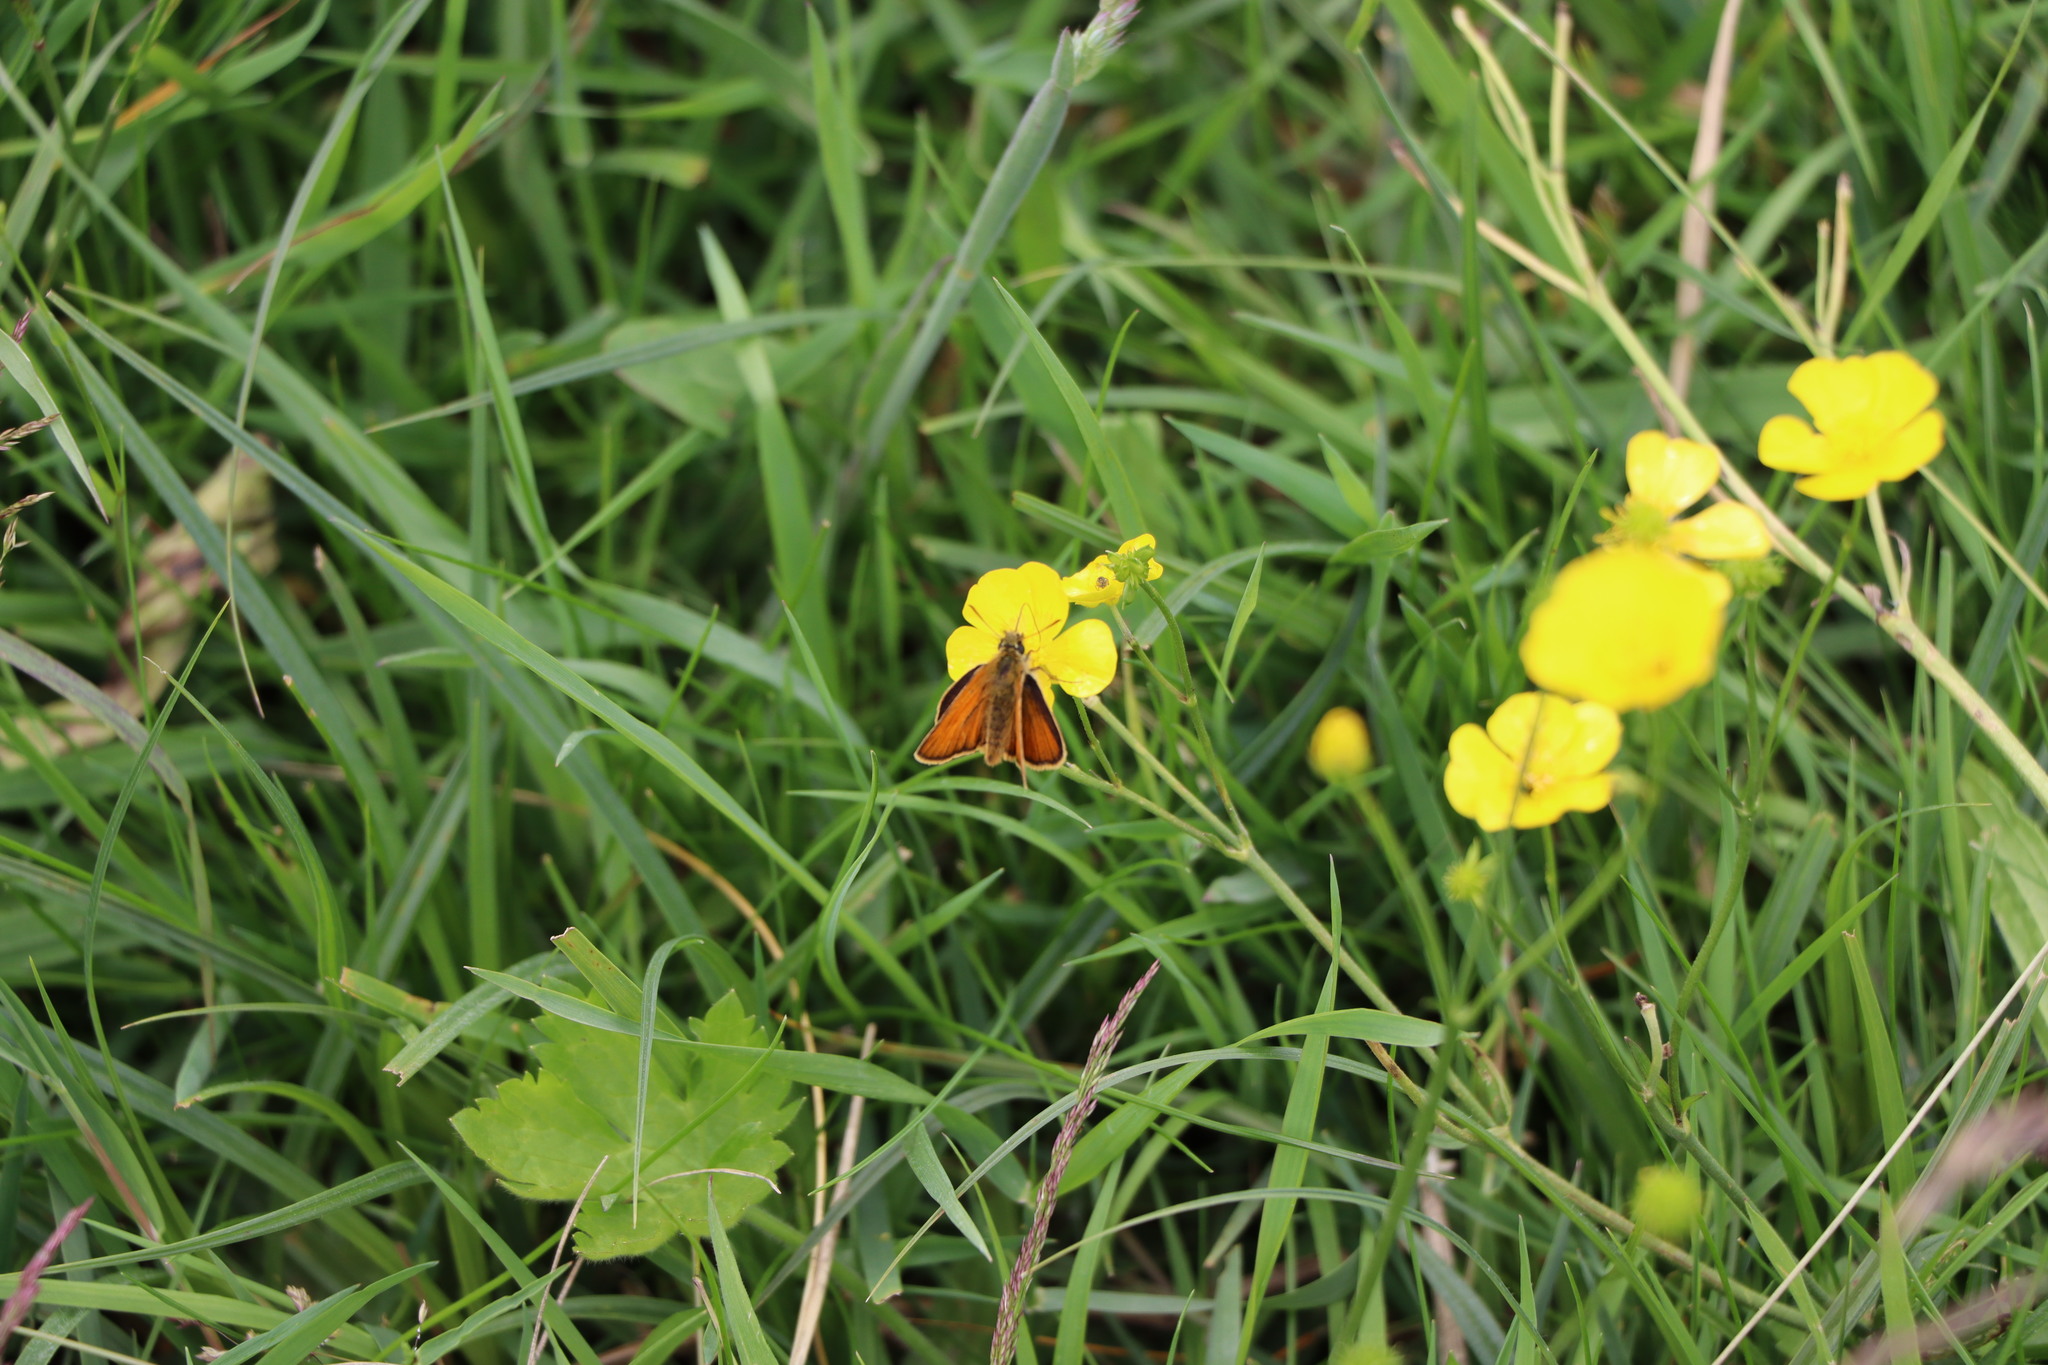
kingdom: Animalia
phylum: Arthropoda
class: Insecta
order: Lepidoptera
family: Hesperiidae
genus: Thymelicus
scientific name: Thymelicus sylvestris
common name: Small skipper
